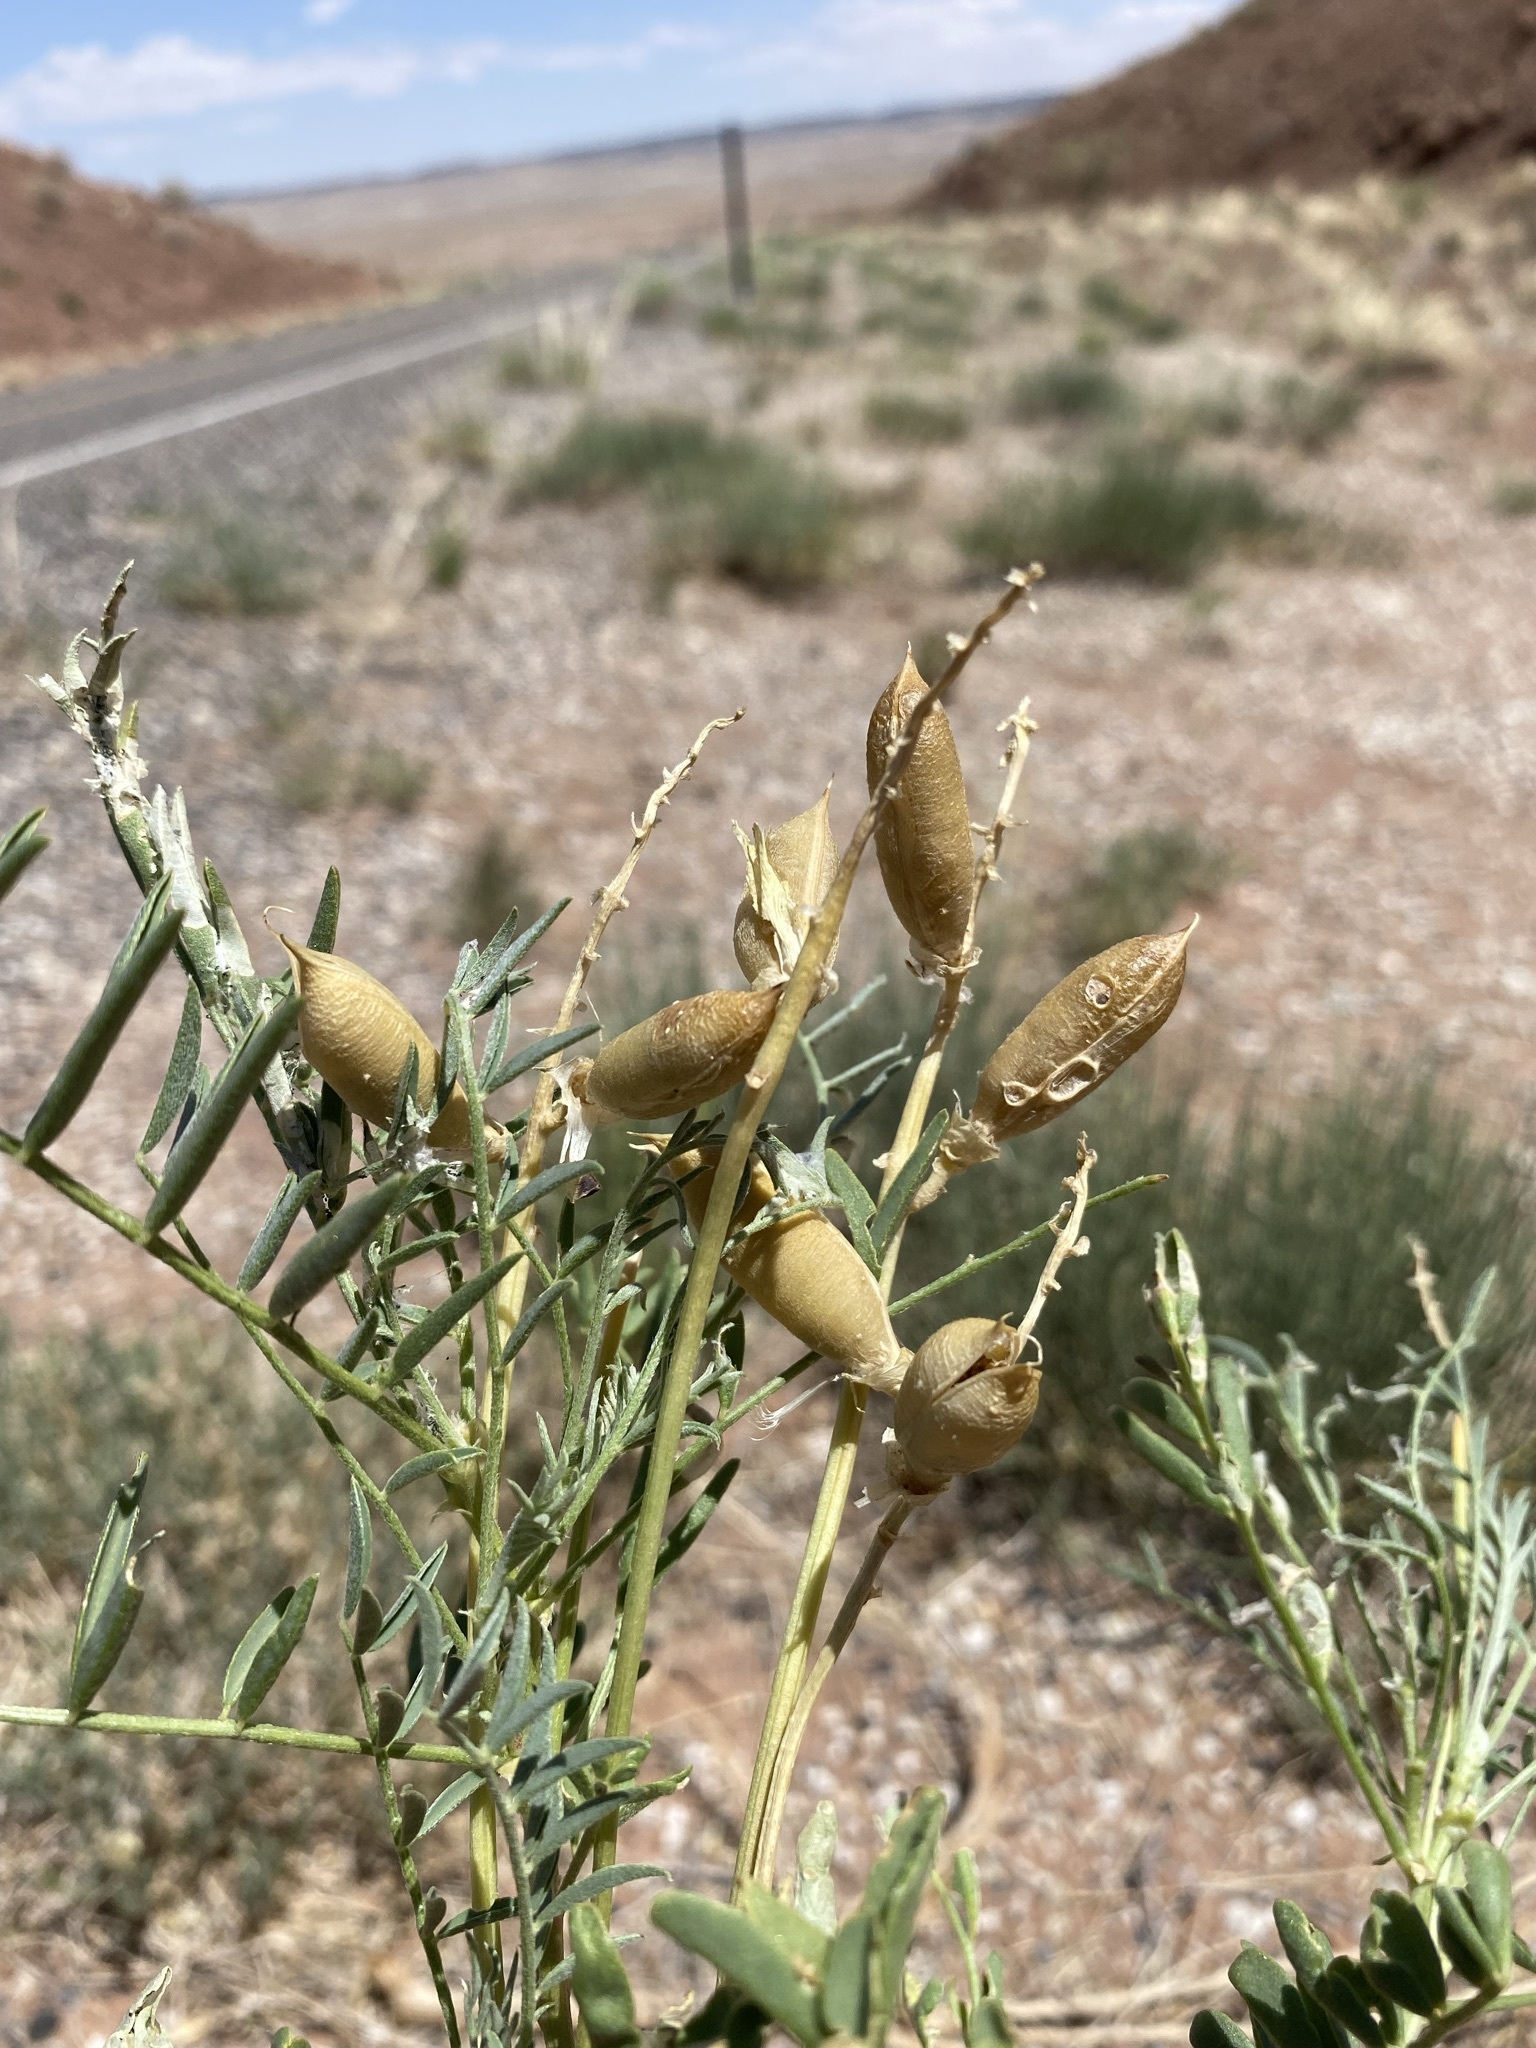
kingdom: Plantae
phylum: Tracheophyta
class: Magnoliopsida
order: Fabales
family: Fabaceae
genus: Astragalus
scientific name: Astragalus praelongus
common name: Stinking milk-vetch
